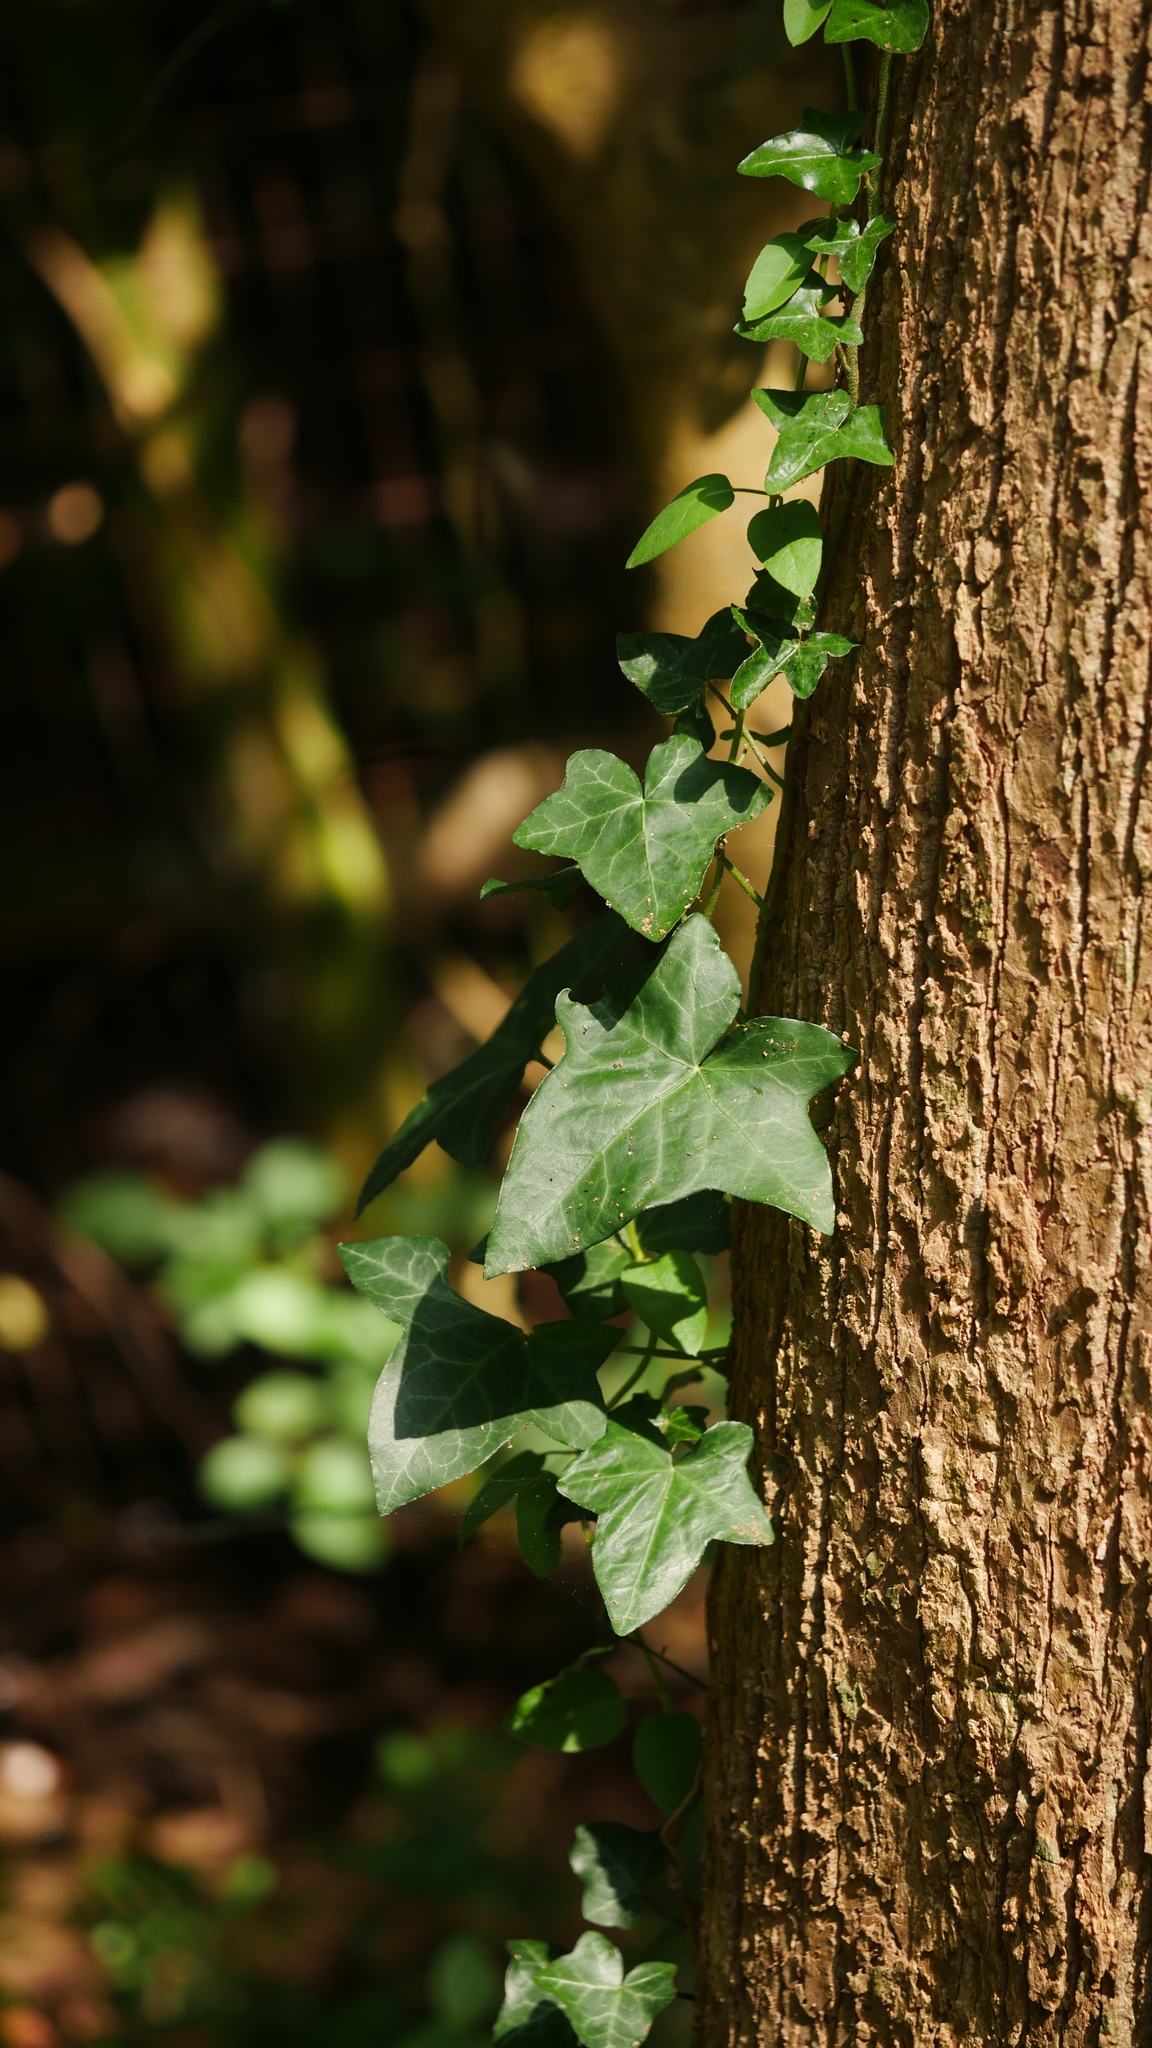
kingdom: Plantae
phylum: Tracheophyta
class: Magnoliopsida
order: Apiales
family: Araliaceae
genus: Hedera
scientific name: Hedera helix
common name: Ivy
